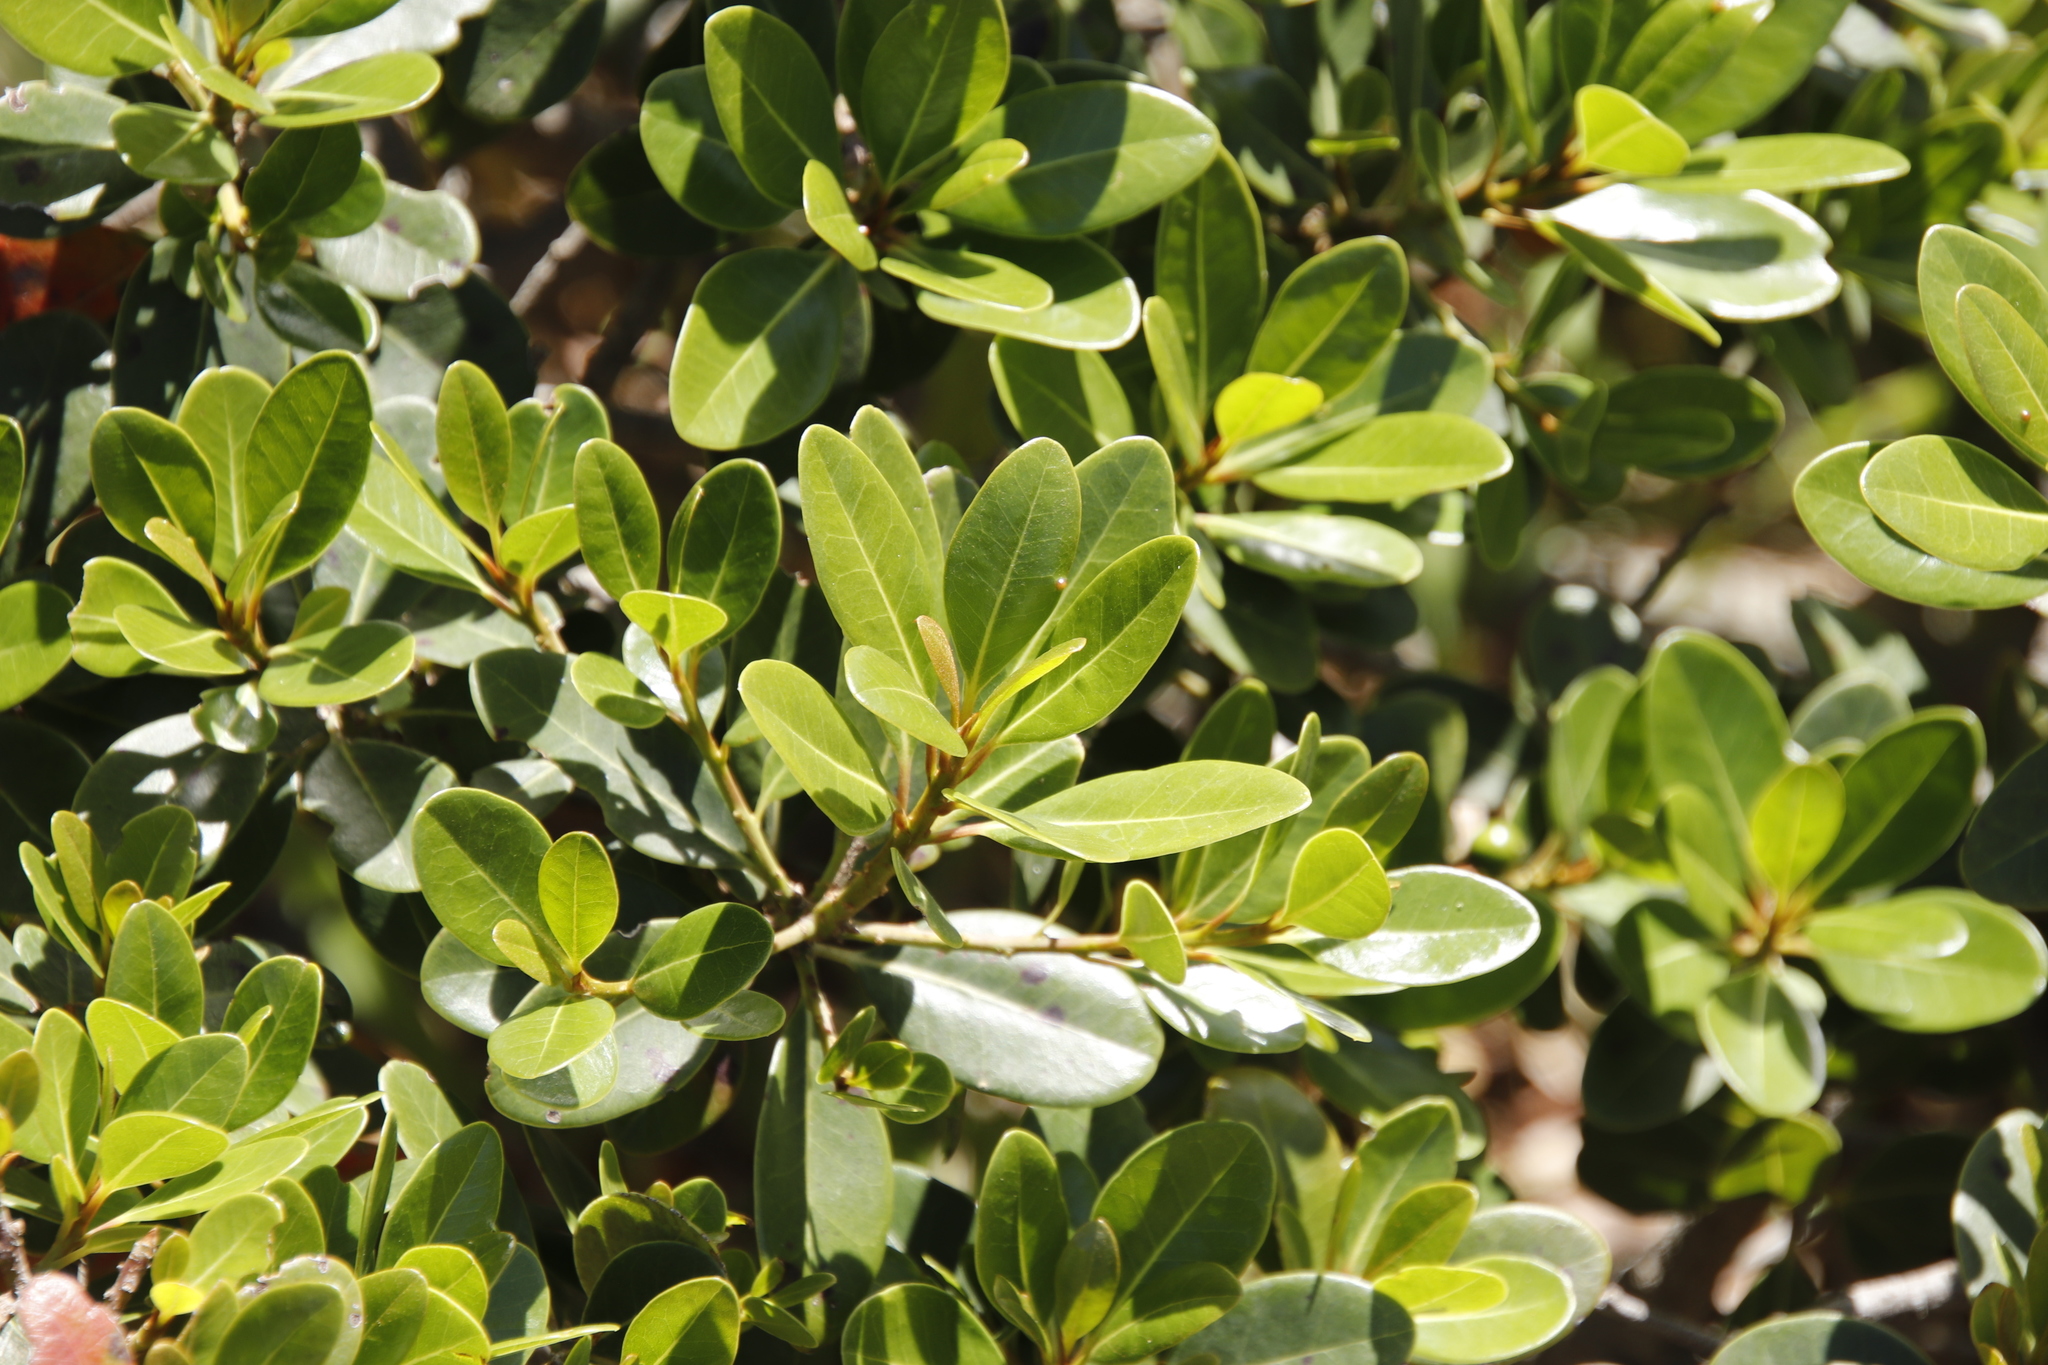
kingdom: Plantae
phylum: Tracheophyta
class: Magnoliopsida
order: Ericales
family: Sapotaceae
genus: Sideroxylon
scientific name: Sideroxylon inerme
